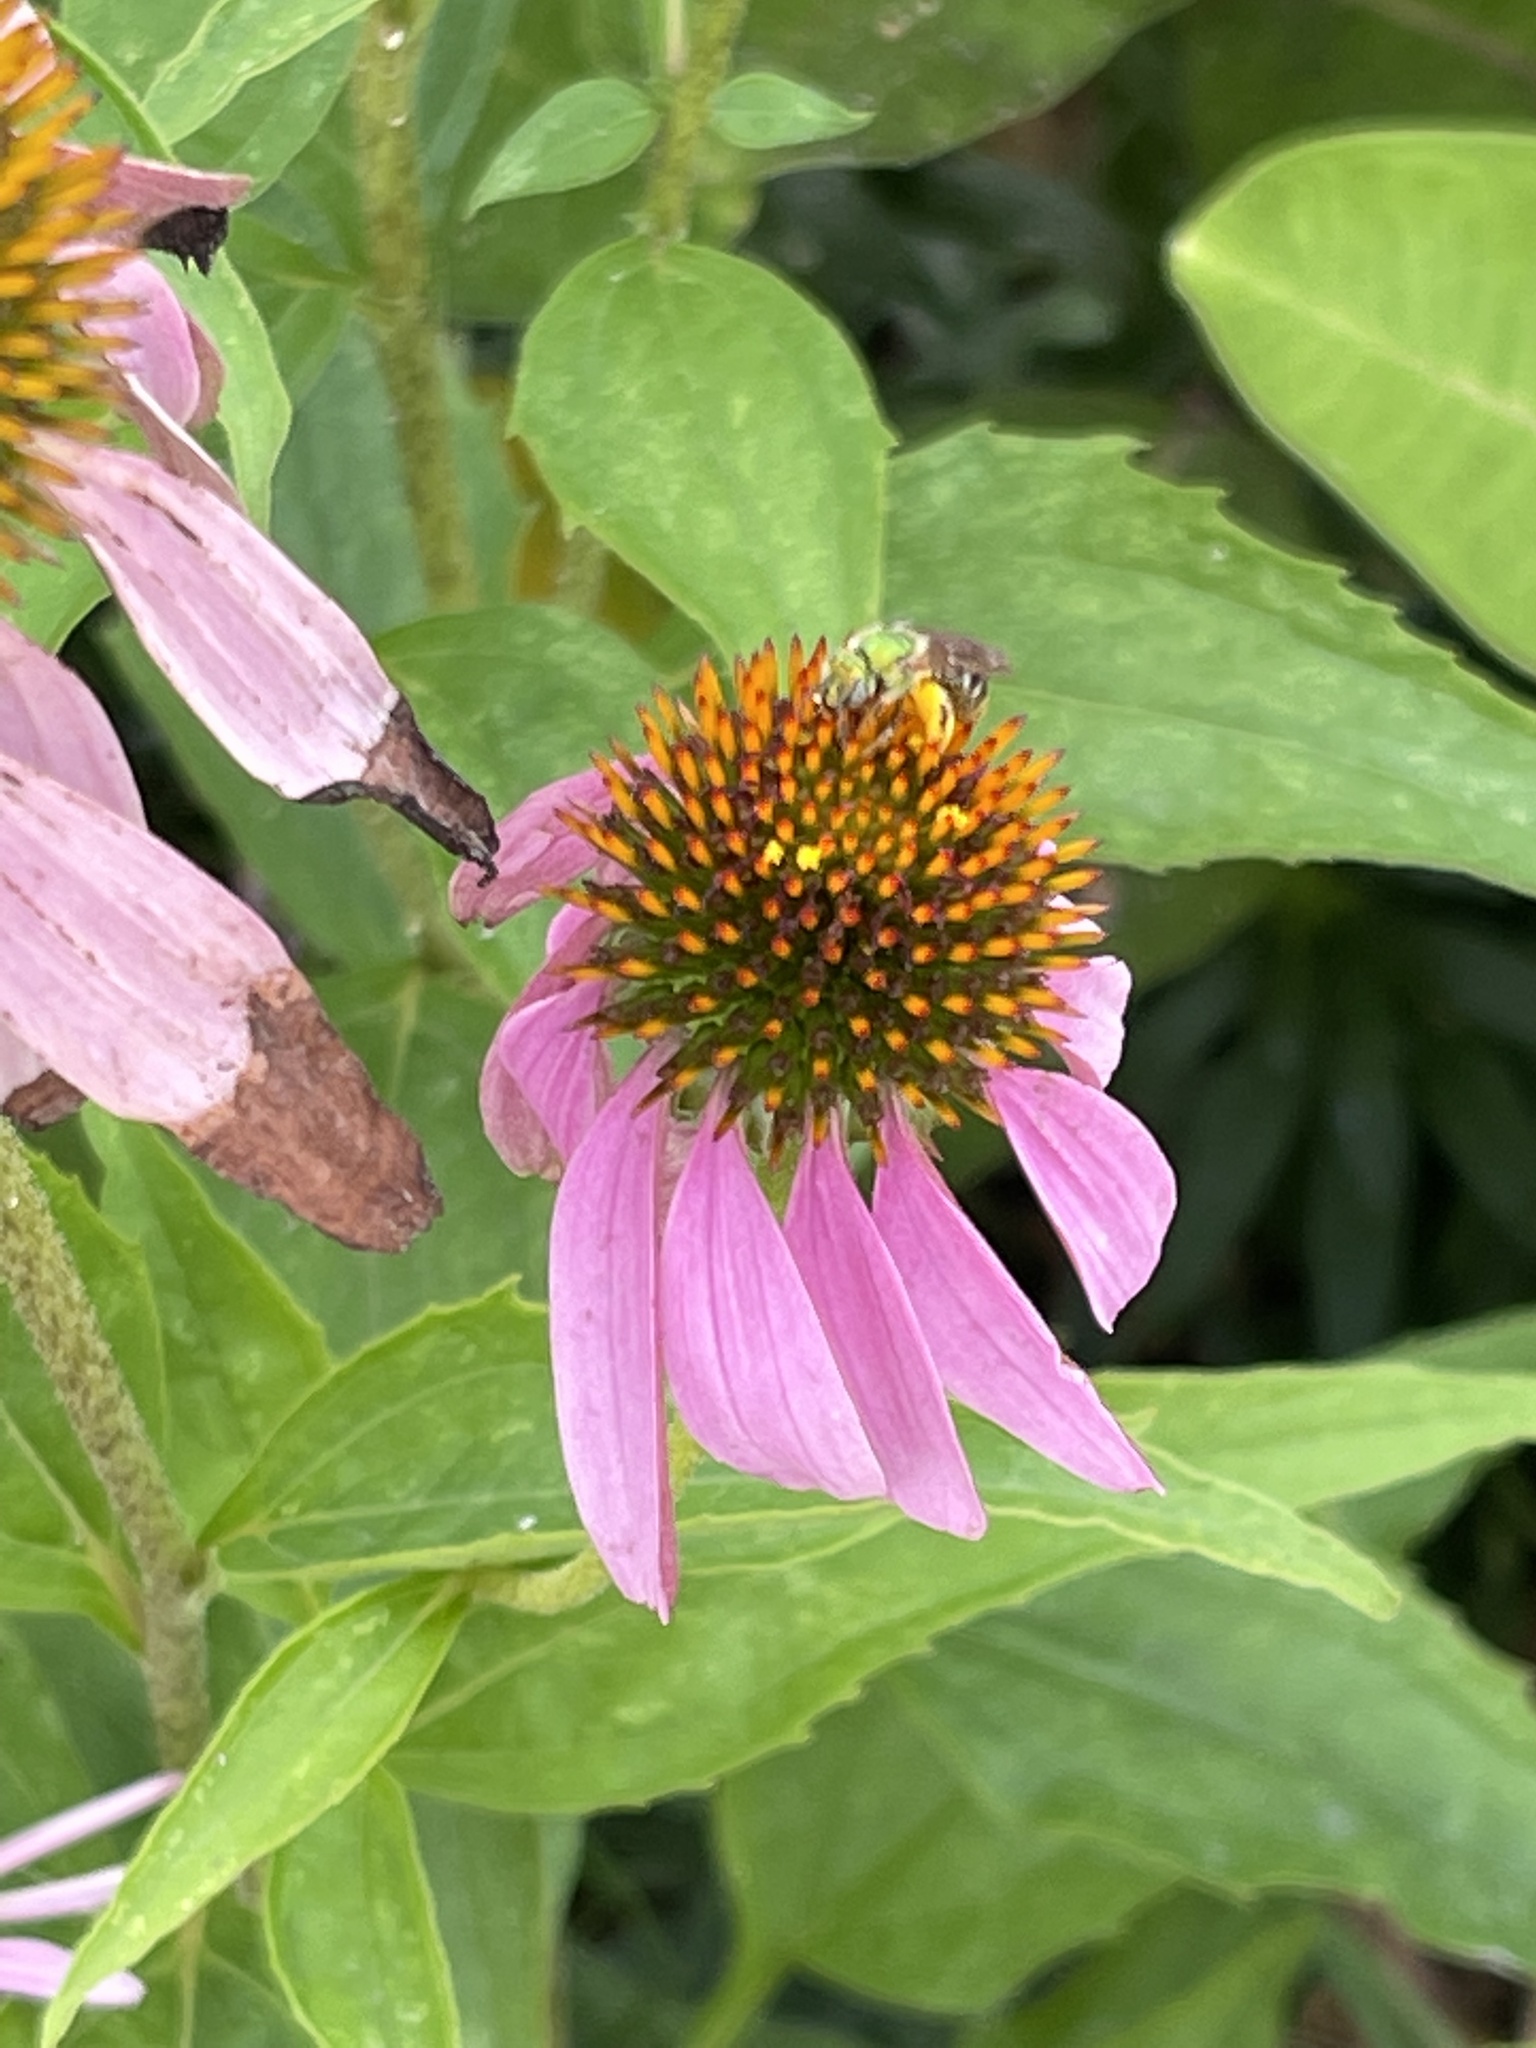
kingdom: Animalia
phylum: Arthropoda
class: Insecta
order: Hymenoptera
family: Halictidae
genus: Agapostemon
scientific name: Agapostemon virescens
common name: Bicolored striped sweat bee
